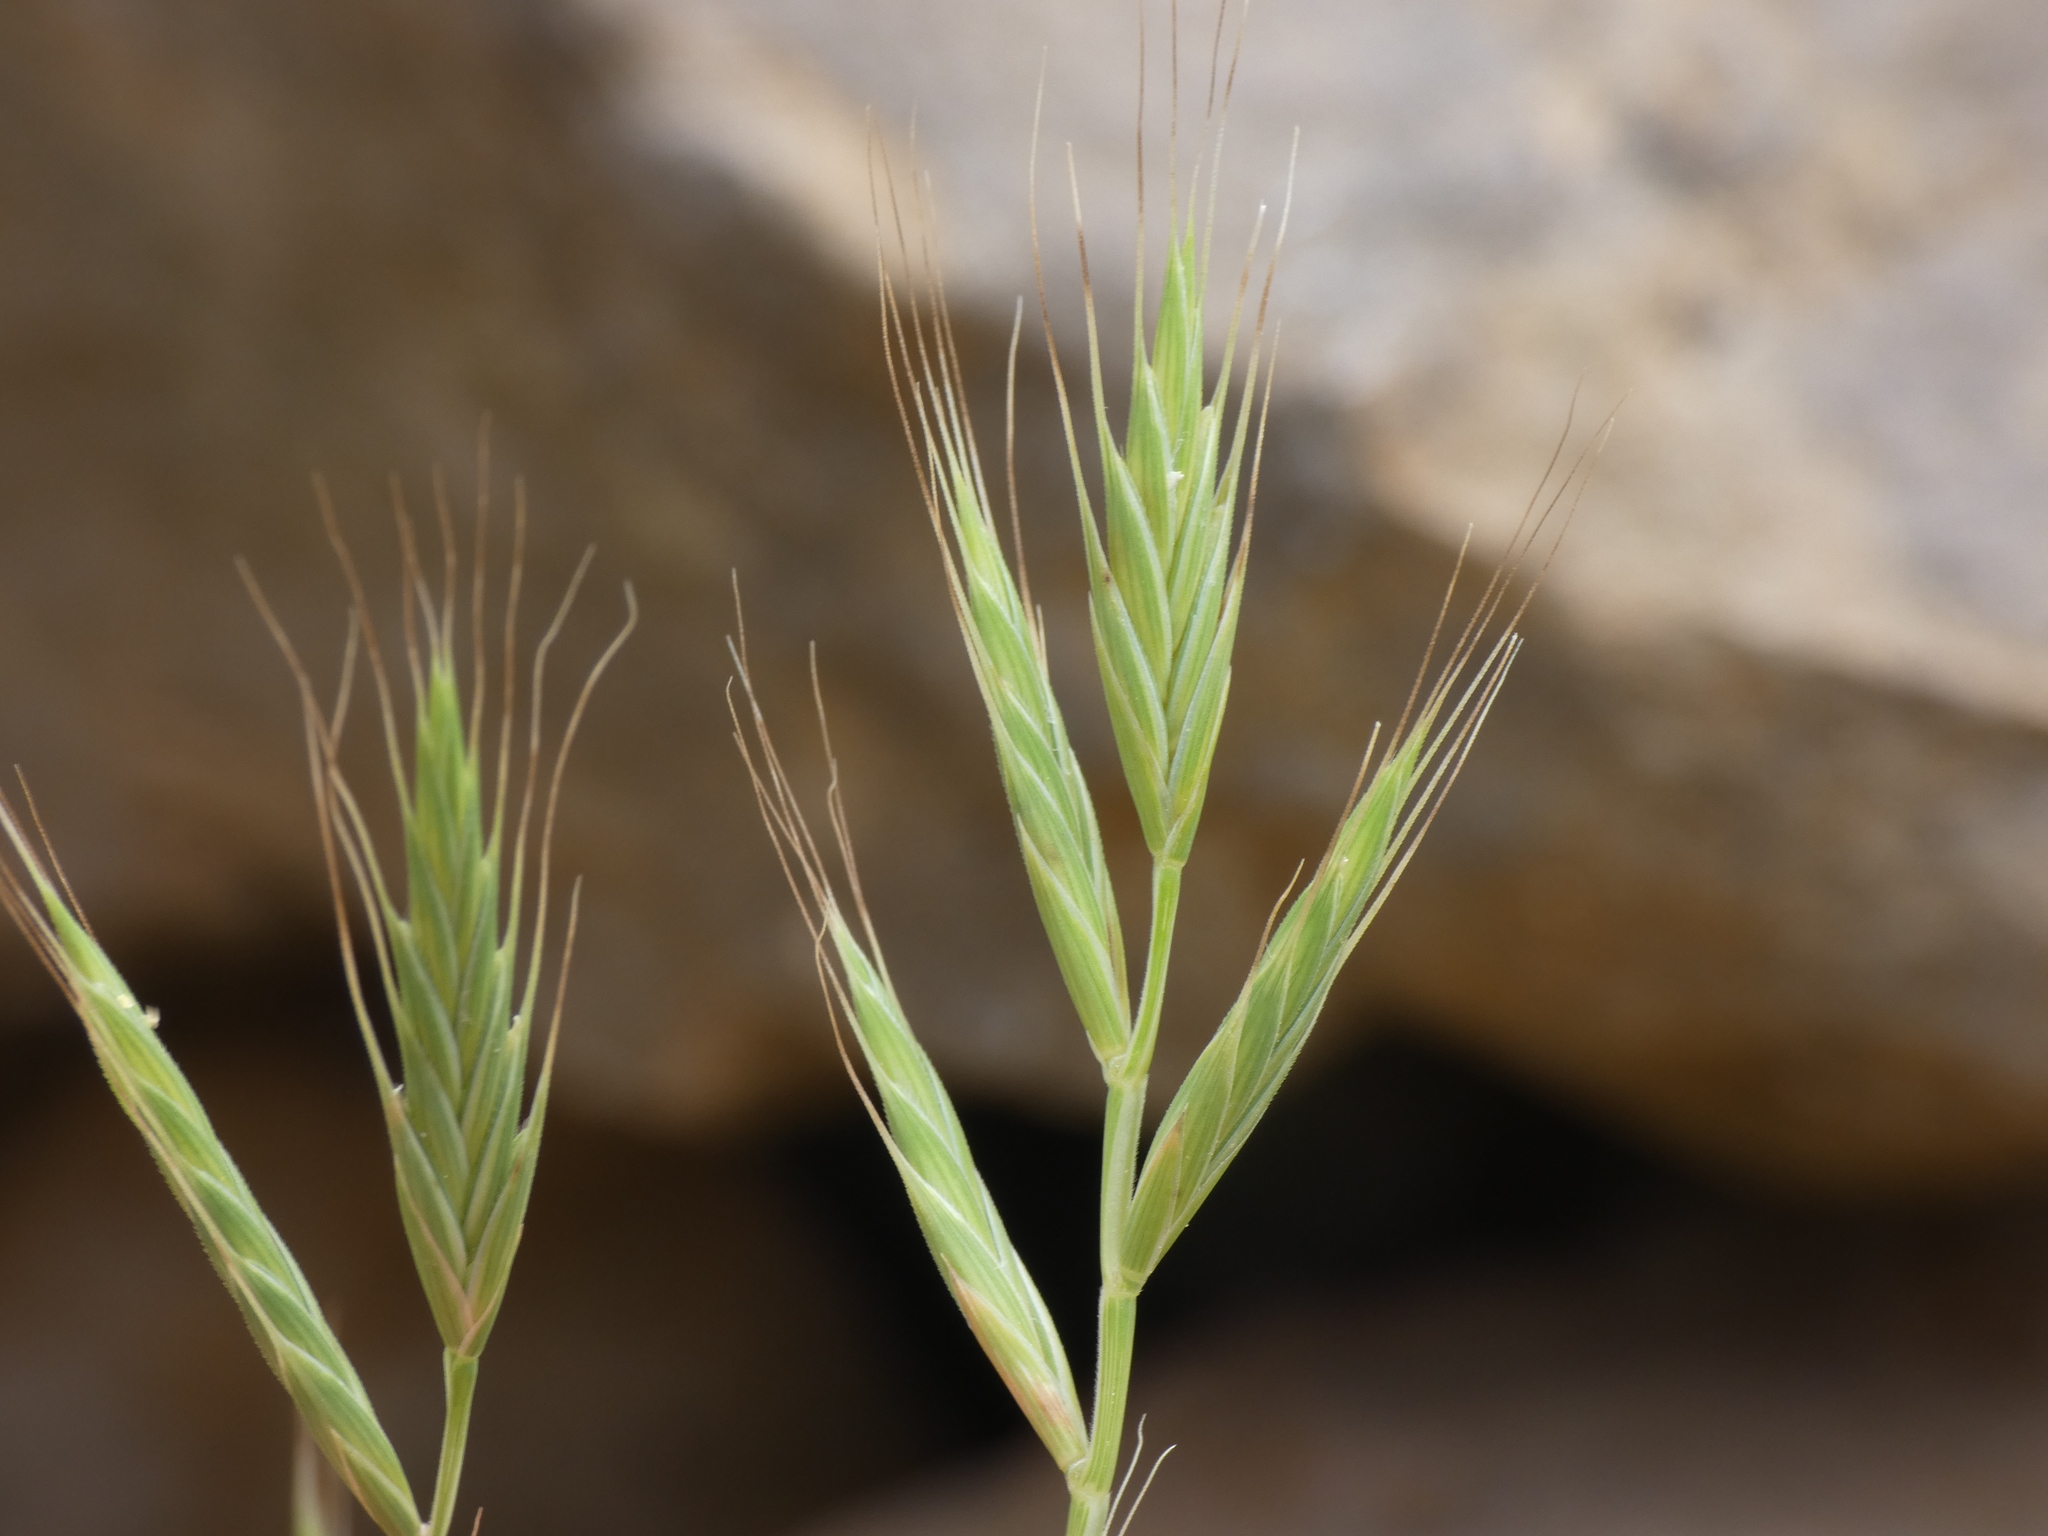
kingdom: Plantae
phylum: Tracheophyta
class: Liliopsida
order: Poales
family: Poaceae
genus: Brachypodium
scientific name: Brachypodium distachyon
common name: Stiff brome
